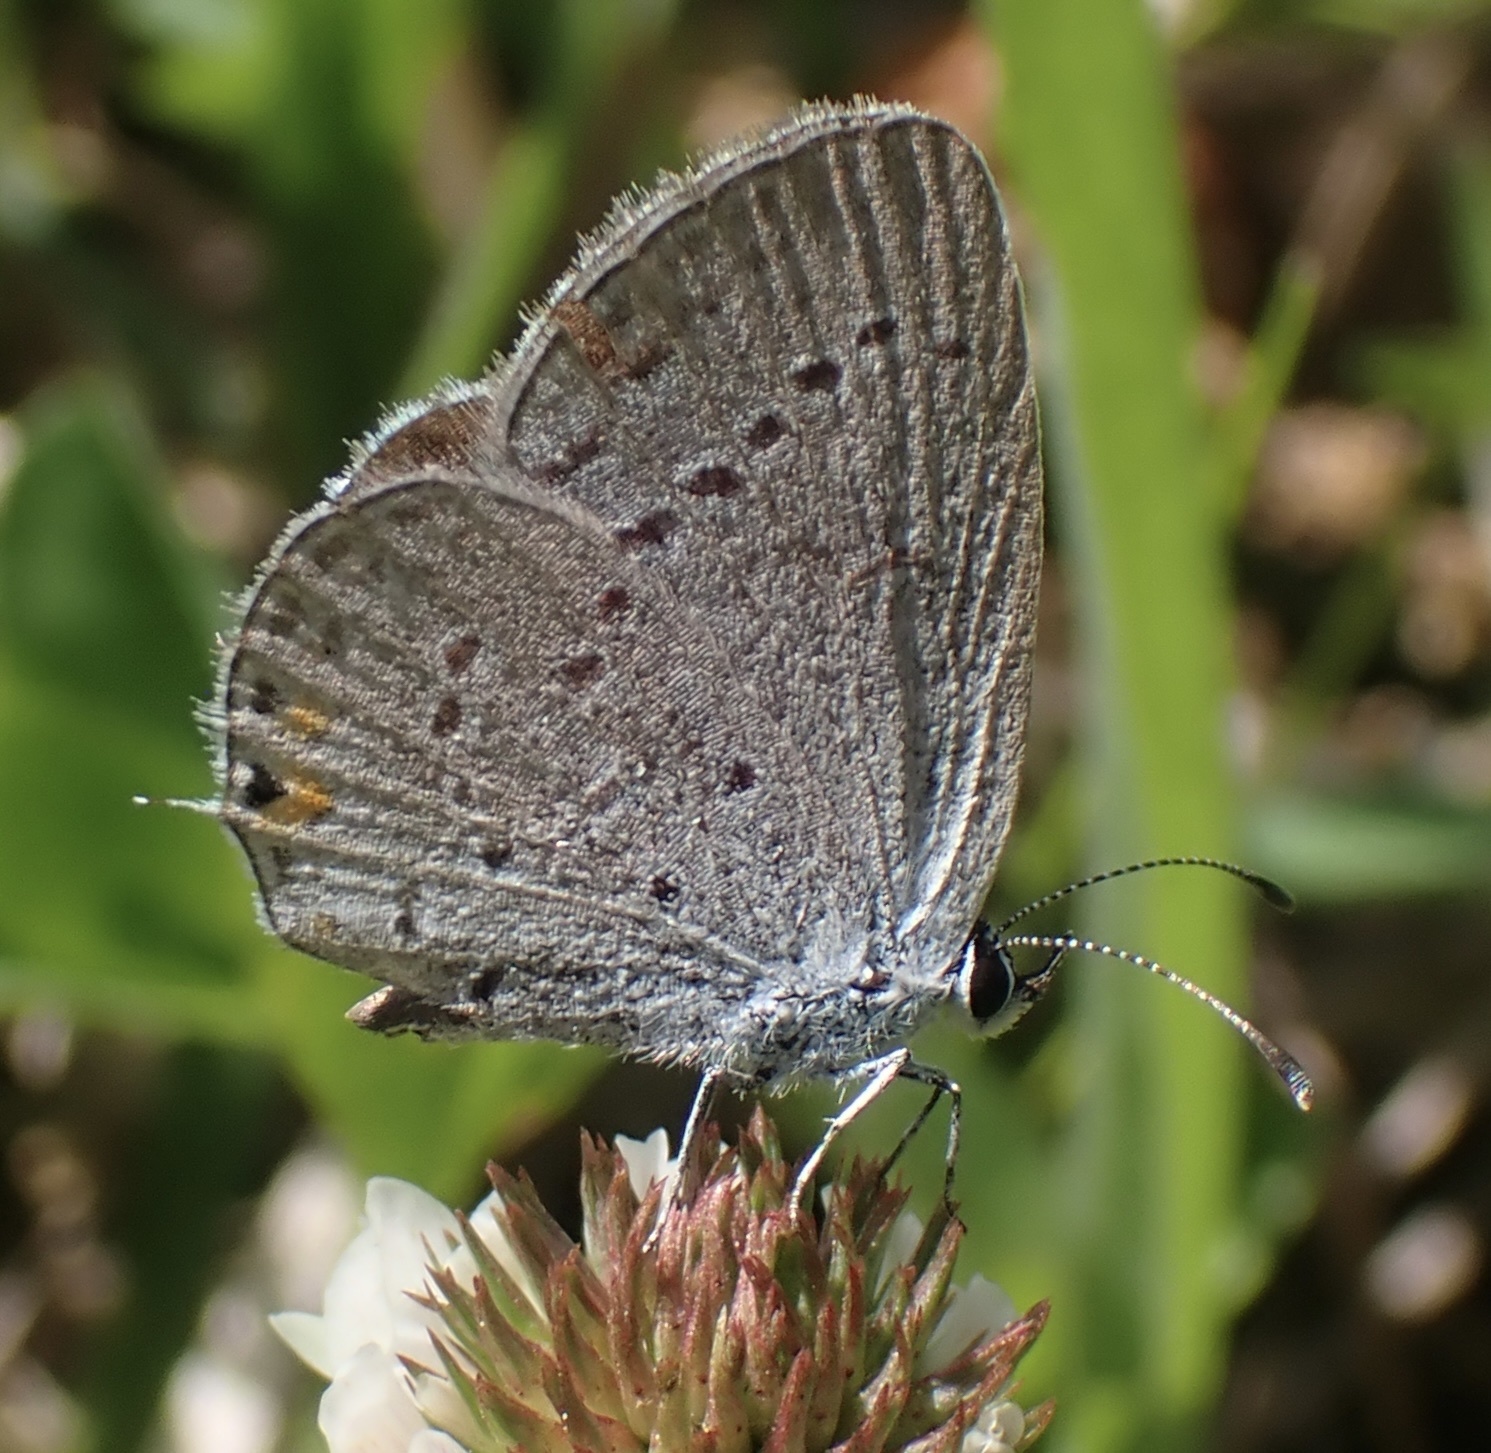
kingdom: Animalia
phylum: Arthropoda
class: Insecta
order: Lepidoptera
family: Lycaenidae
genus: Elkalyce
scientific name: Elkalyce comyntas
